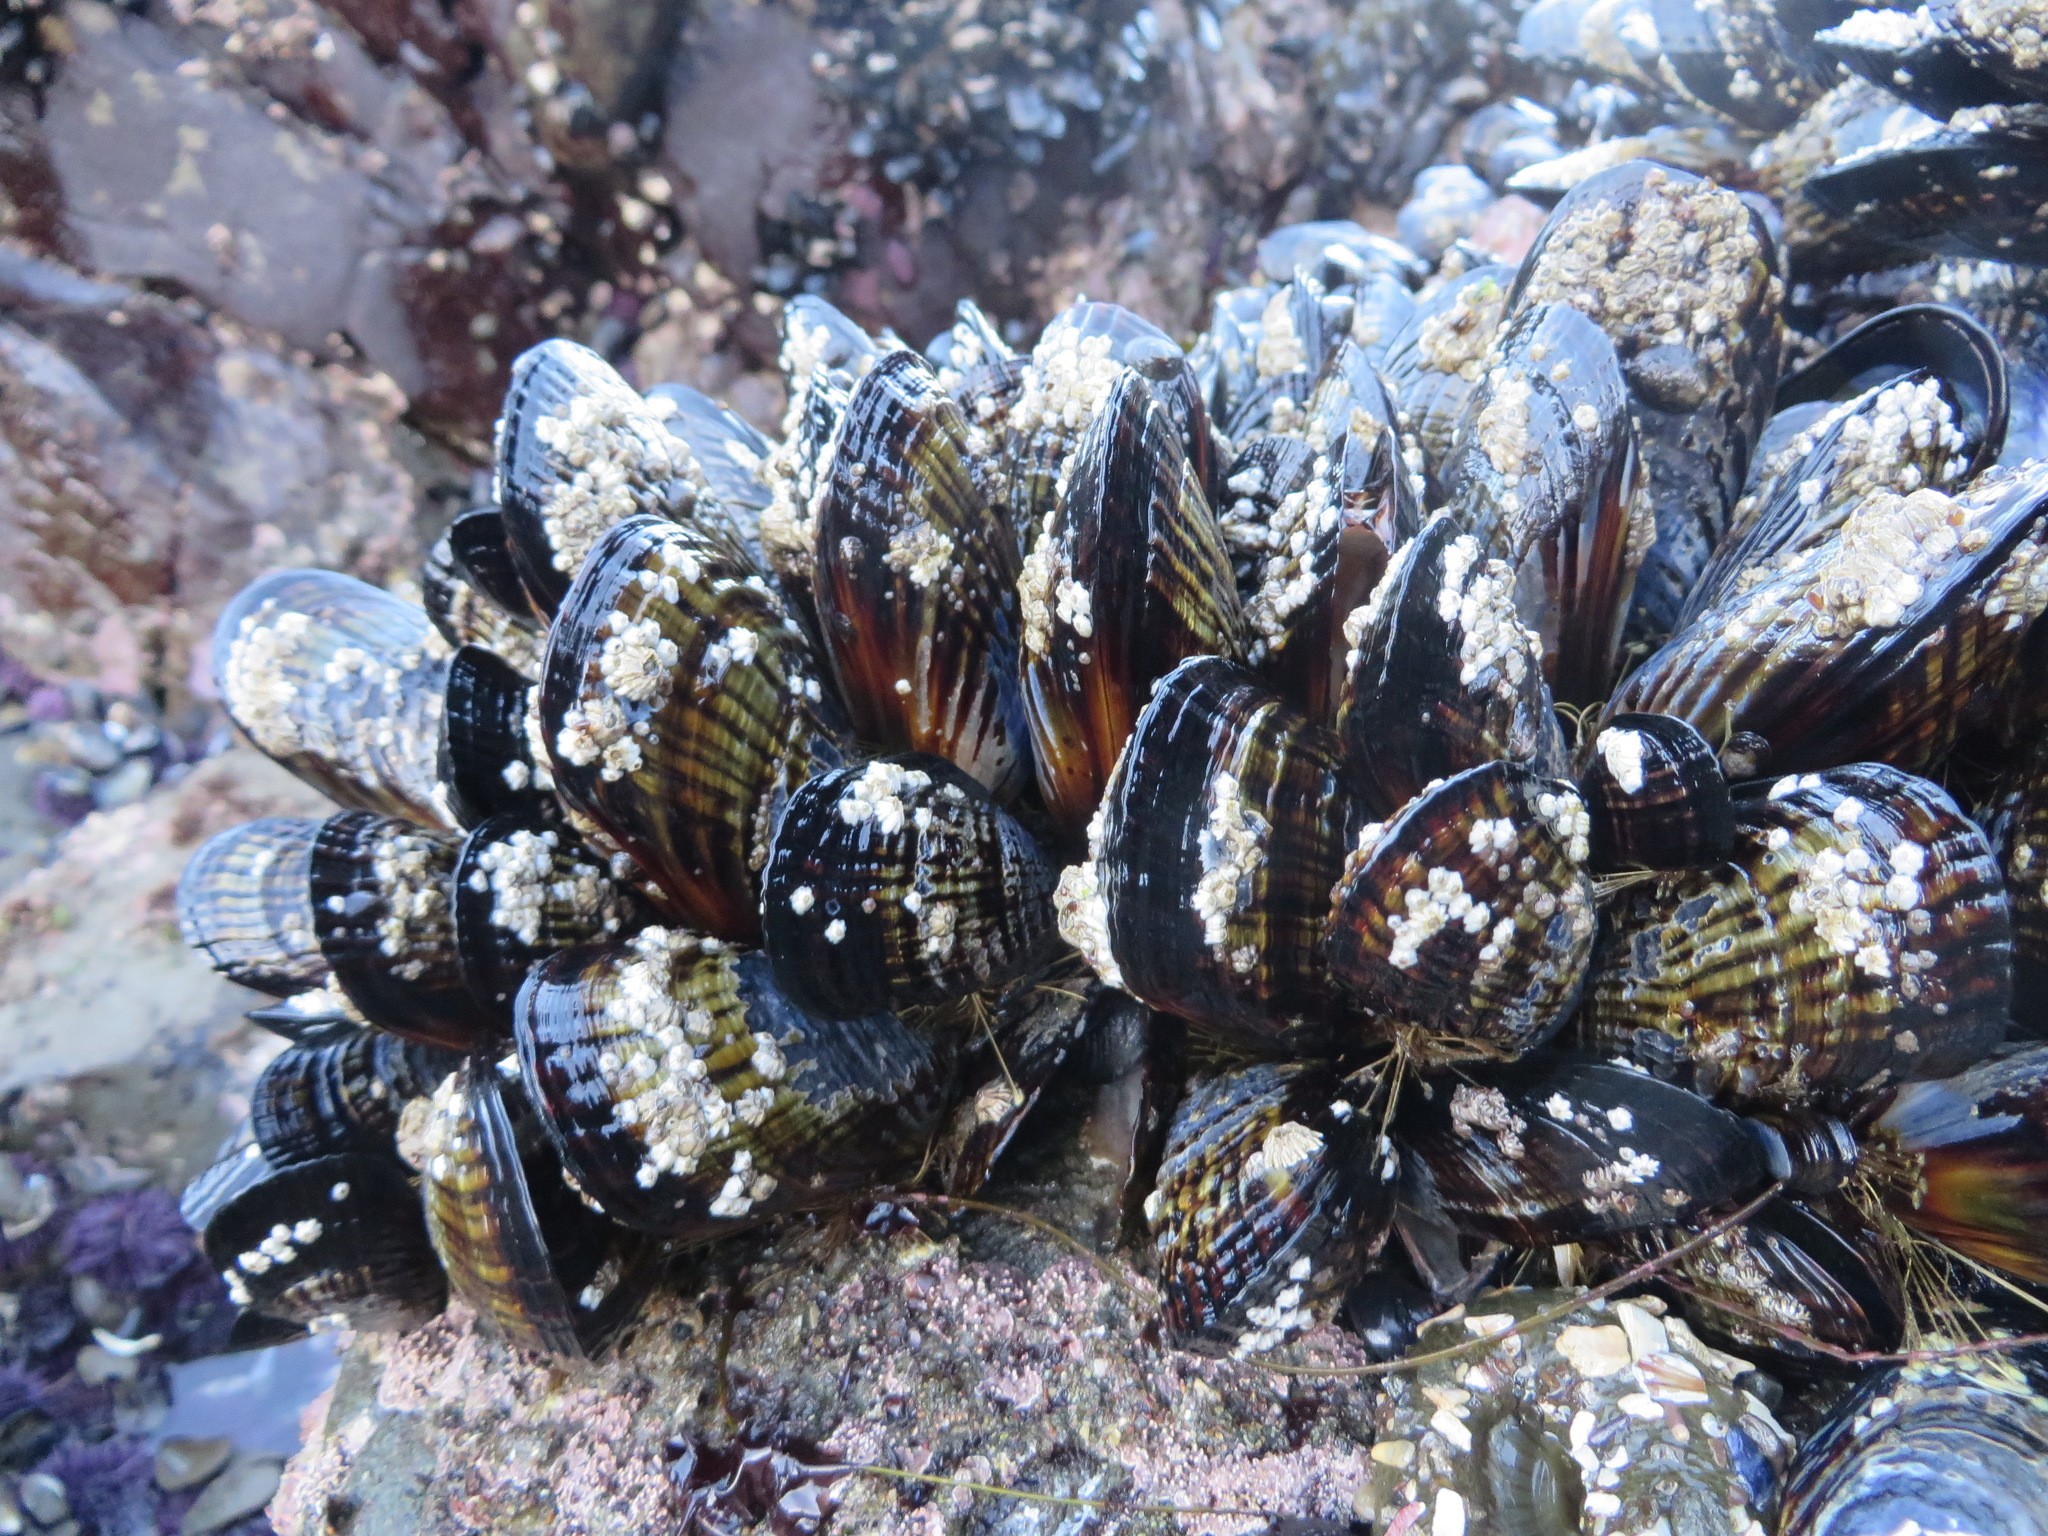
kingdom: Animalia
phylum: Mollusca
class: Bivalvia
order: Mytilida
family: Mytilidae
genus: Mytilus
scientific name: Mytilus californianus
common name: California mussel
